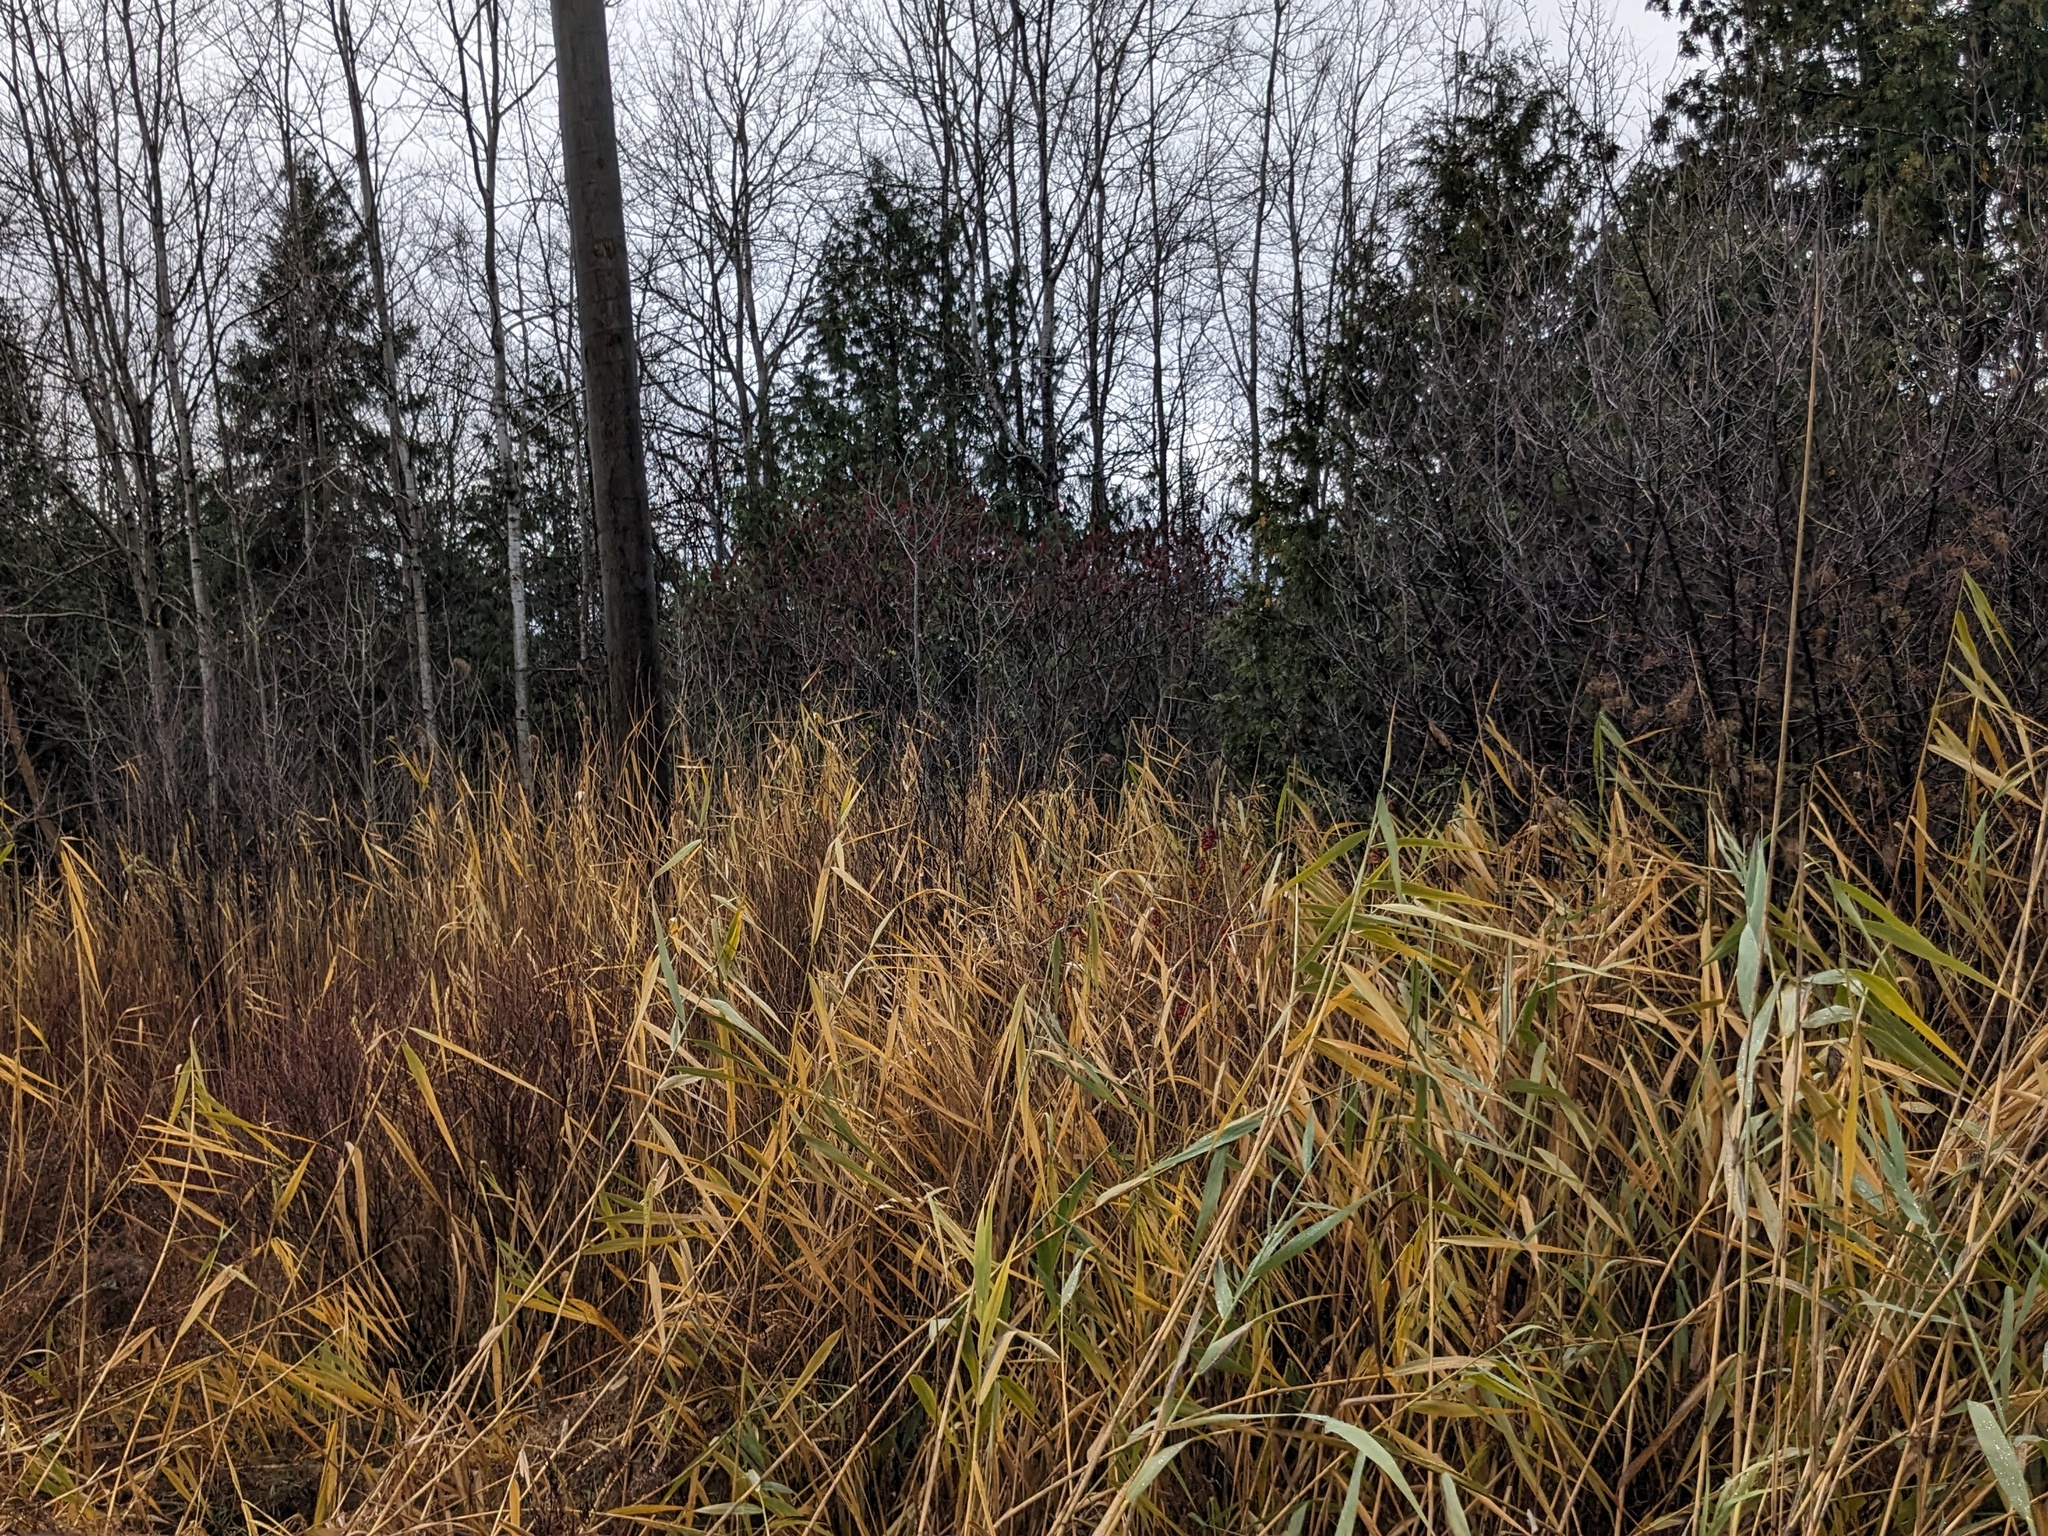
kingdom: Plantae
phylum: Tracheophyta
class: Liliopsida
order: Poales
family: Poaceae
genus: Phragmites
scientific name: Phragmites australis
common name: Common reed
